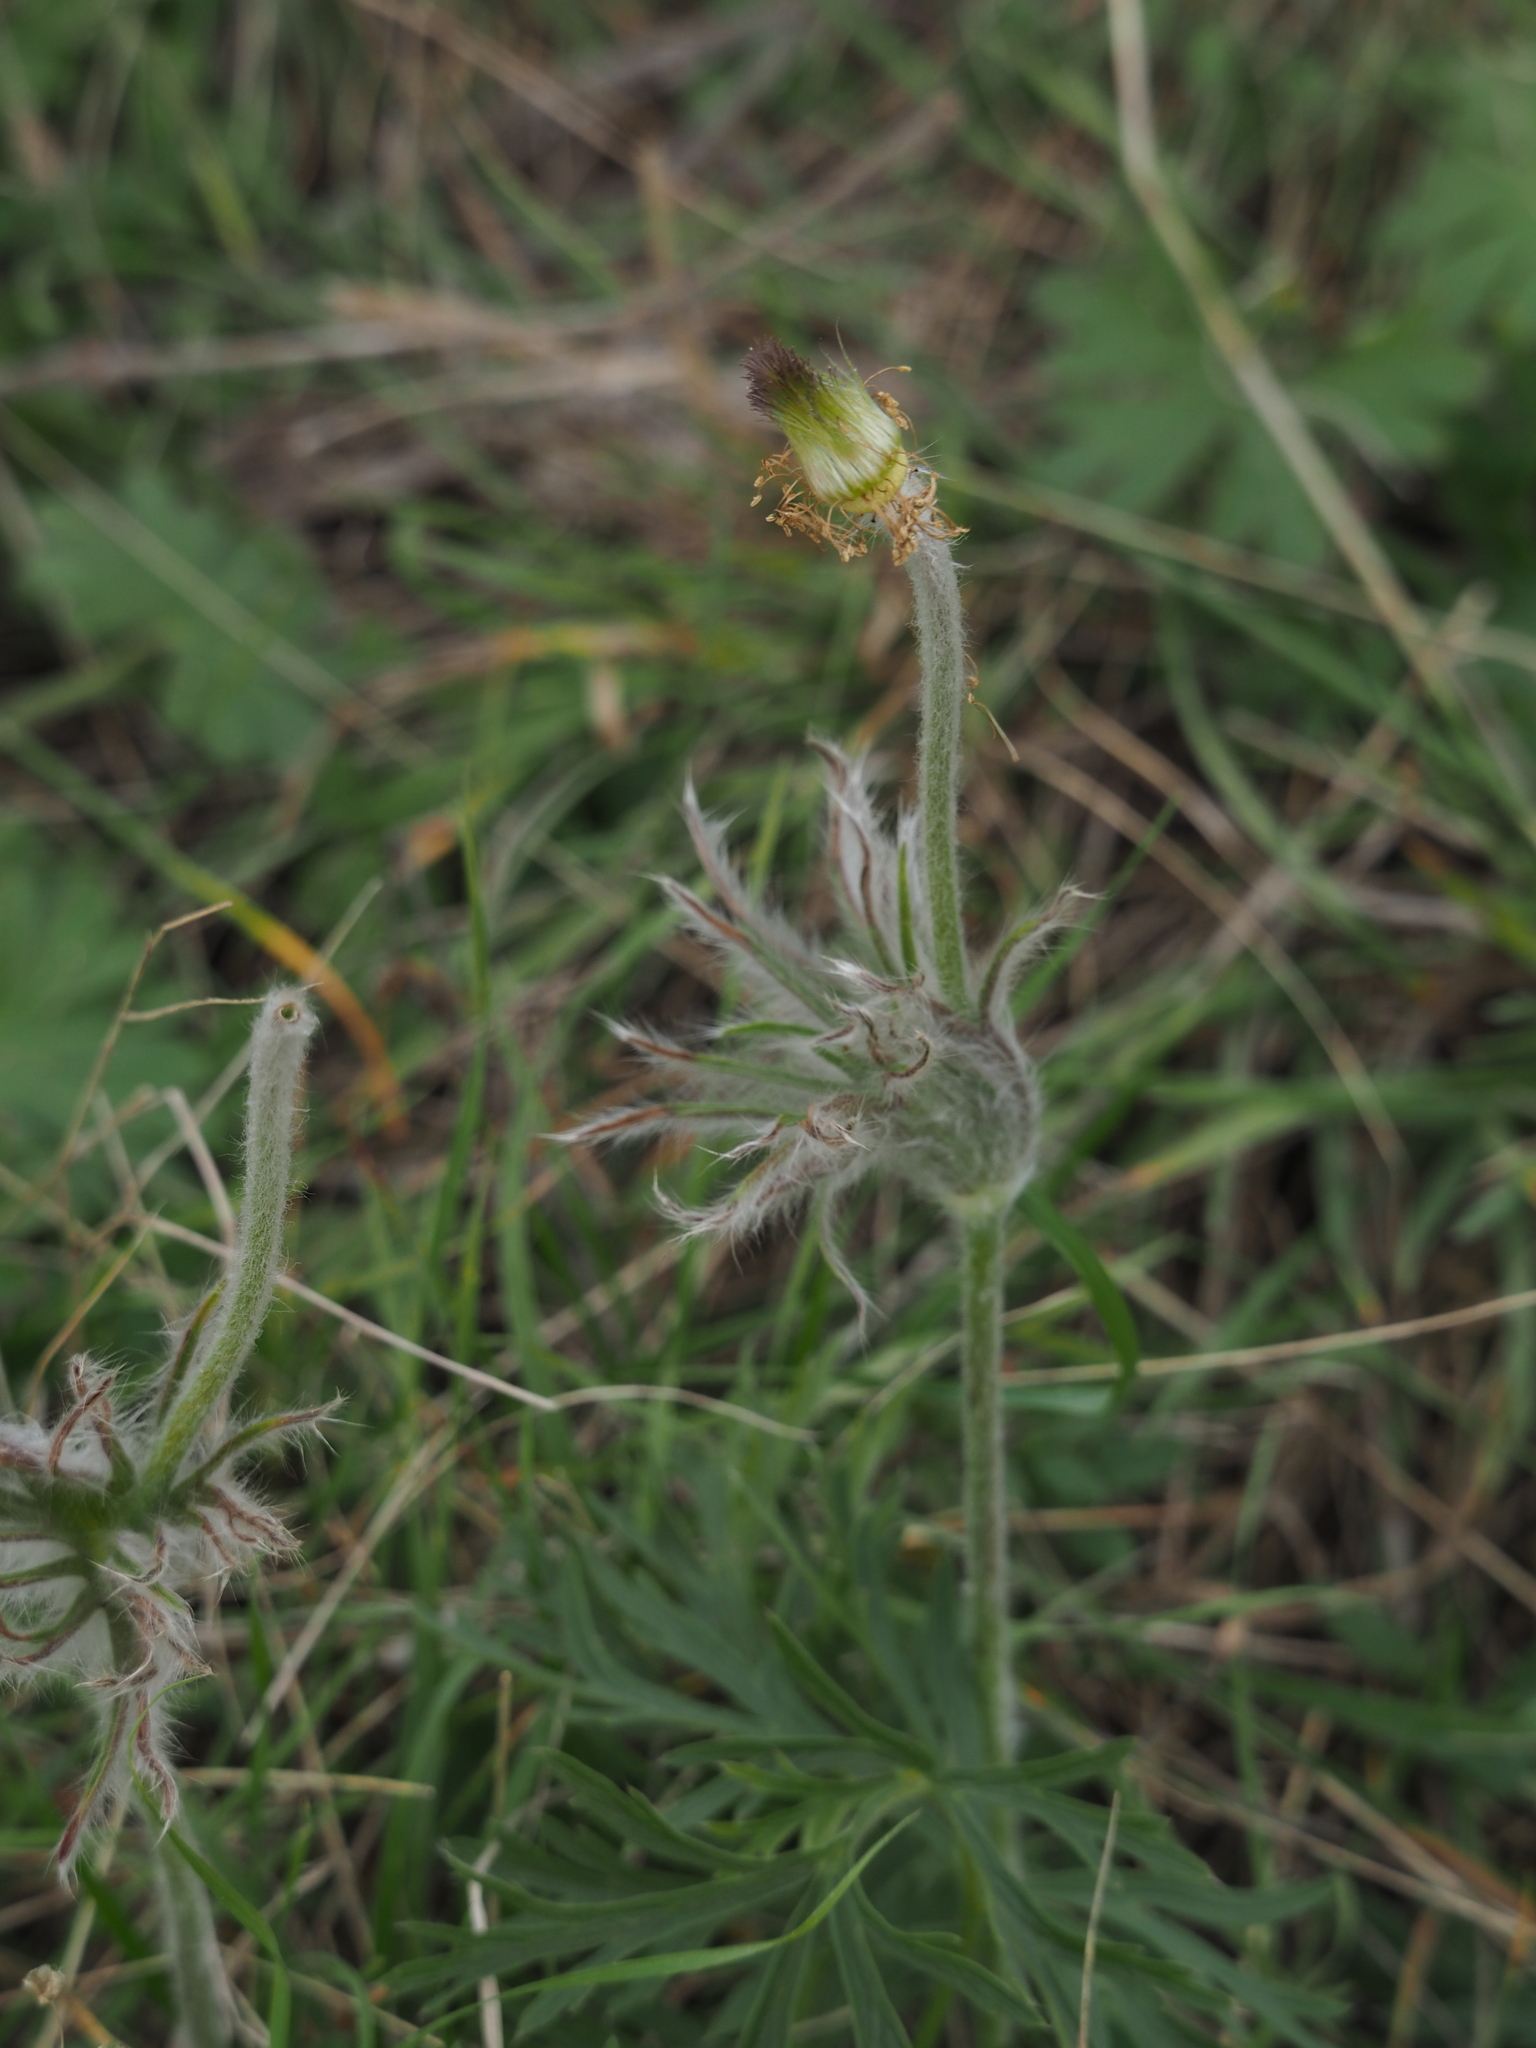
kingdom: Plantae
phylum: Tracheophyta
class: Magnoliopsida
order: Ranunculales
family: Ranunculaceae
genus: Pulsatilla
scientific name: Pulsatilla pratensis
